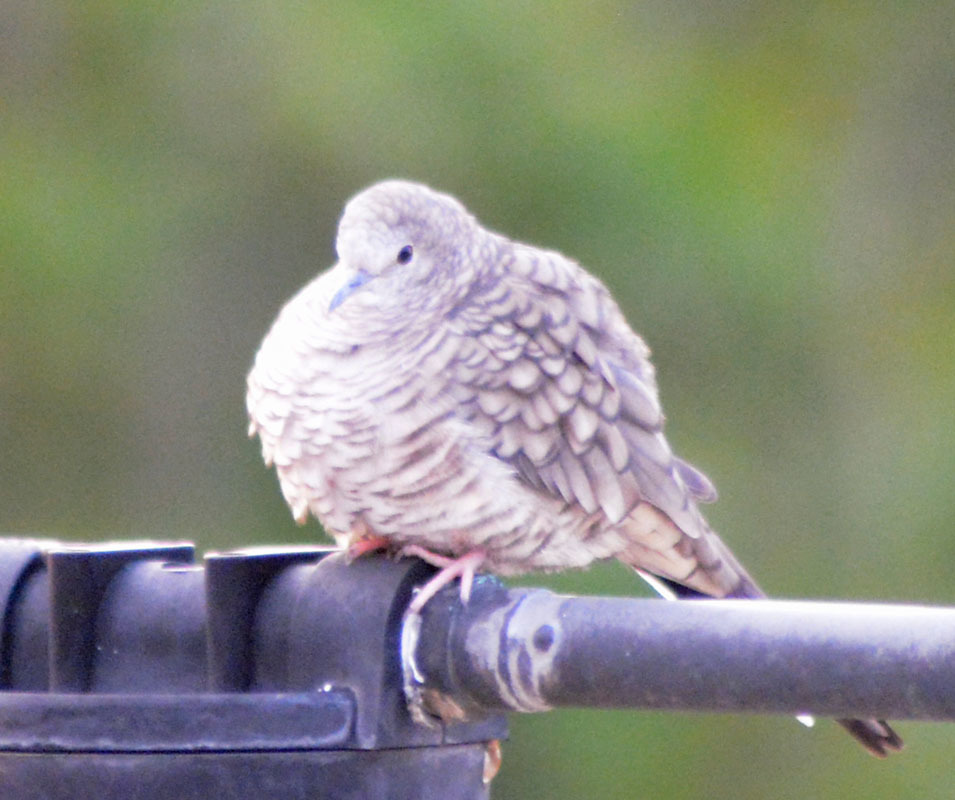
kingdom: Animalia
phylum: Chordata
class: Aves
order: Columbiformes
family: Columbidae
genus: Columbina
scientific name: Columbina inca
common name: Inca dove
